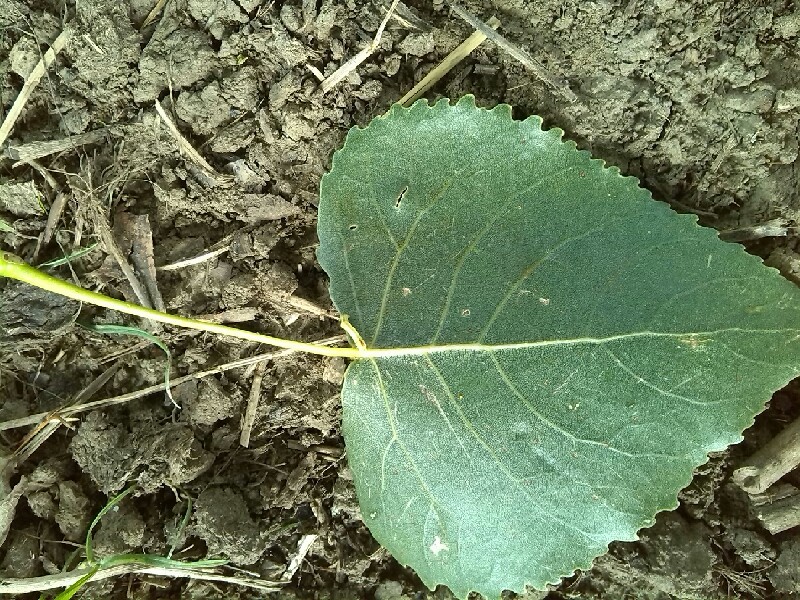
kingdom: Plantae
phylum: Tracheophyta
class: Magnoliopsida
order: Malpighiales
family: Salicaceae
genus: Populus
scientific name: Populus canadensis
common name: Carolina poplar
